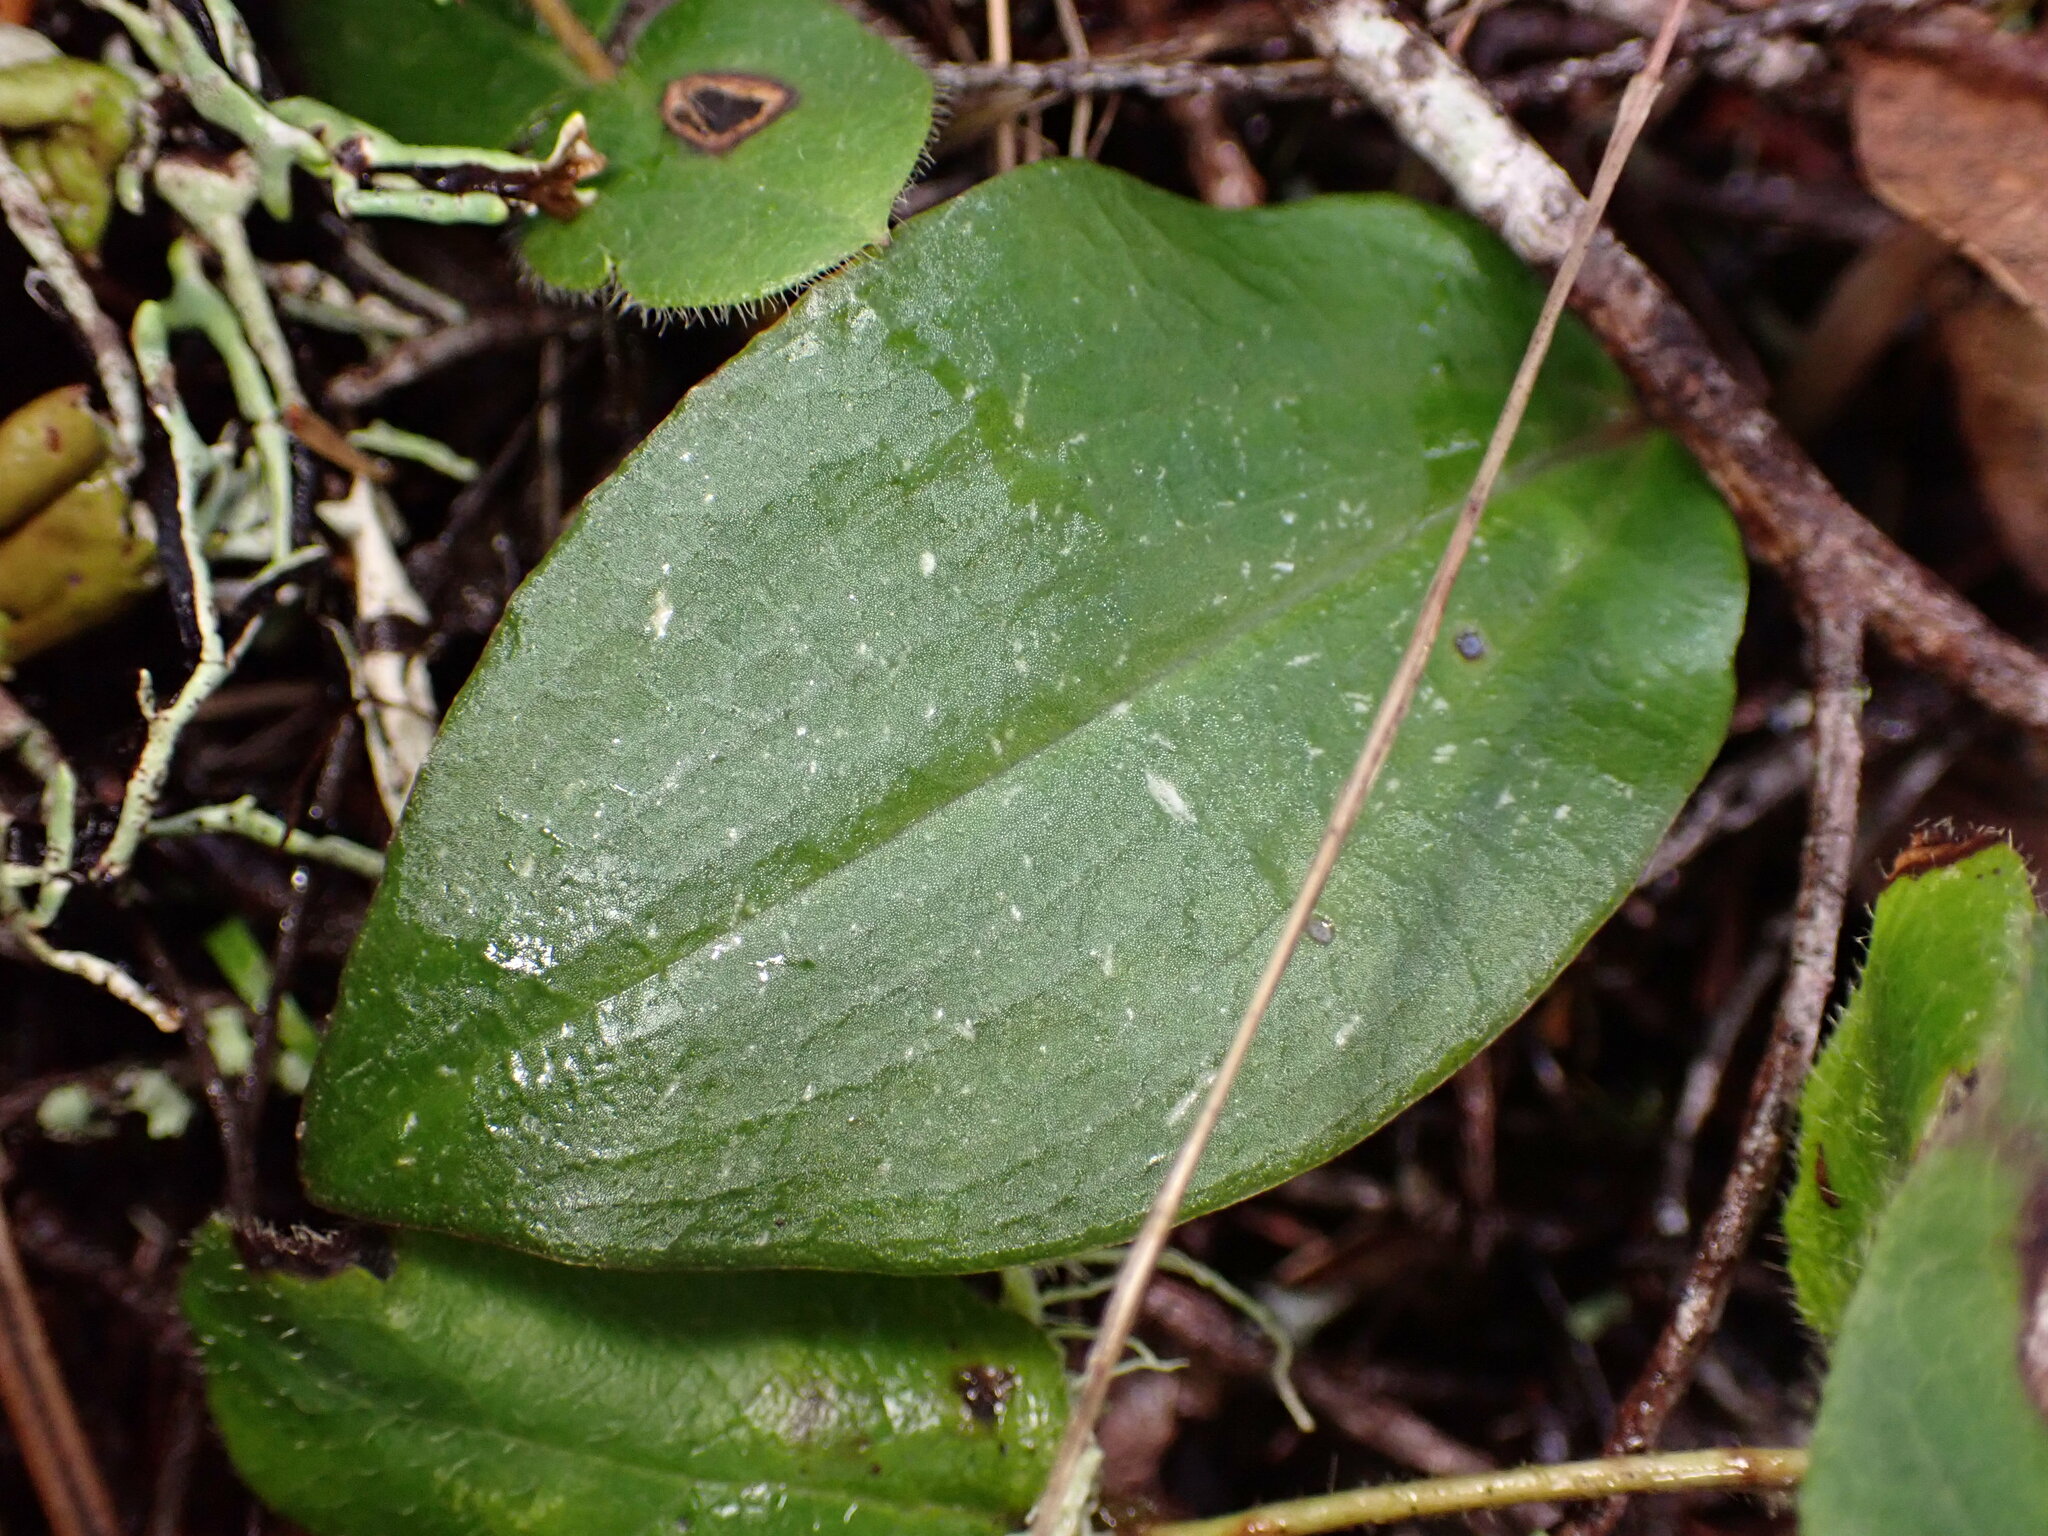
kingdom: Plantae
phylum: Tracheophyta
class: Liliopsida
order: Asparagales
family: Orchidaceae
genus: Calypso
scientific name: Calypso bulbosa
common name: Calypso
